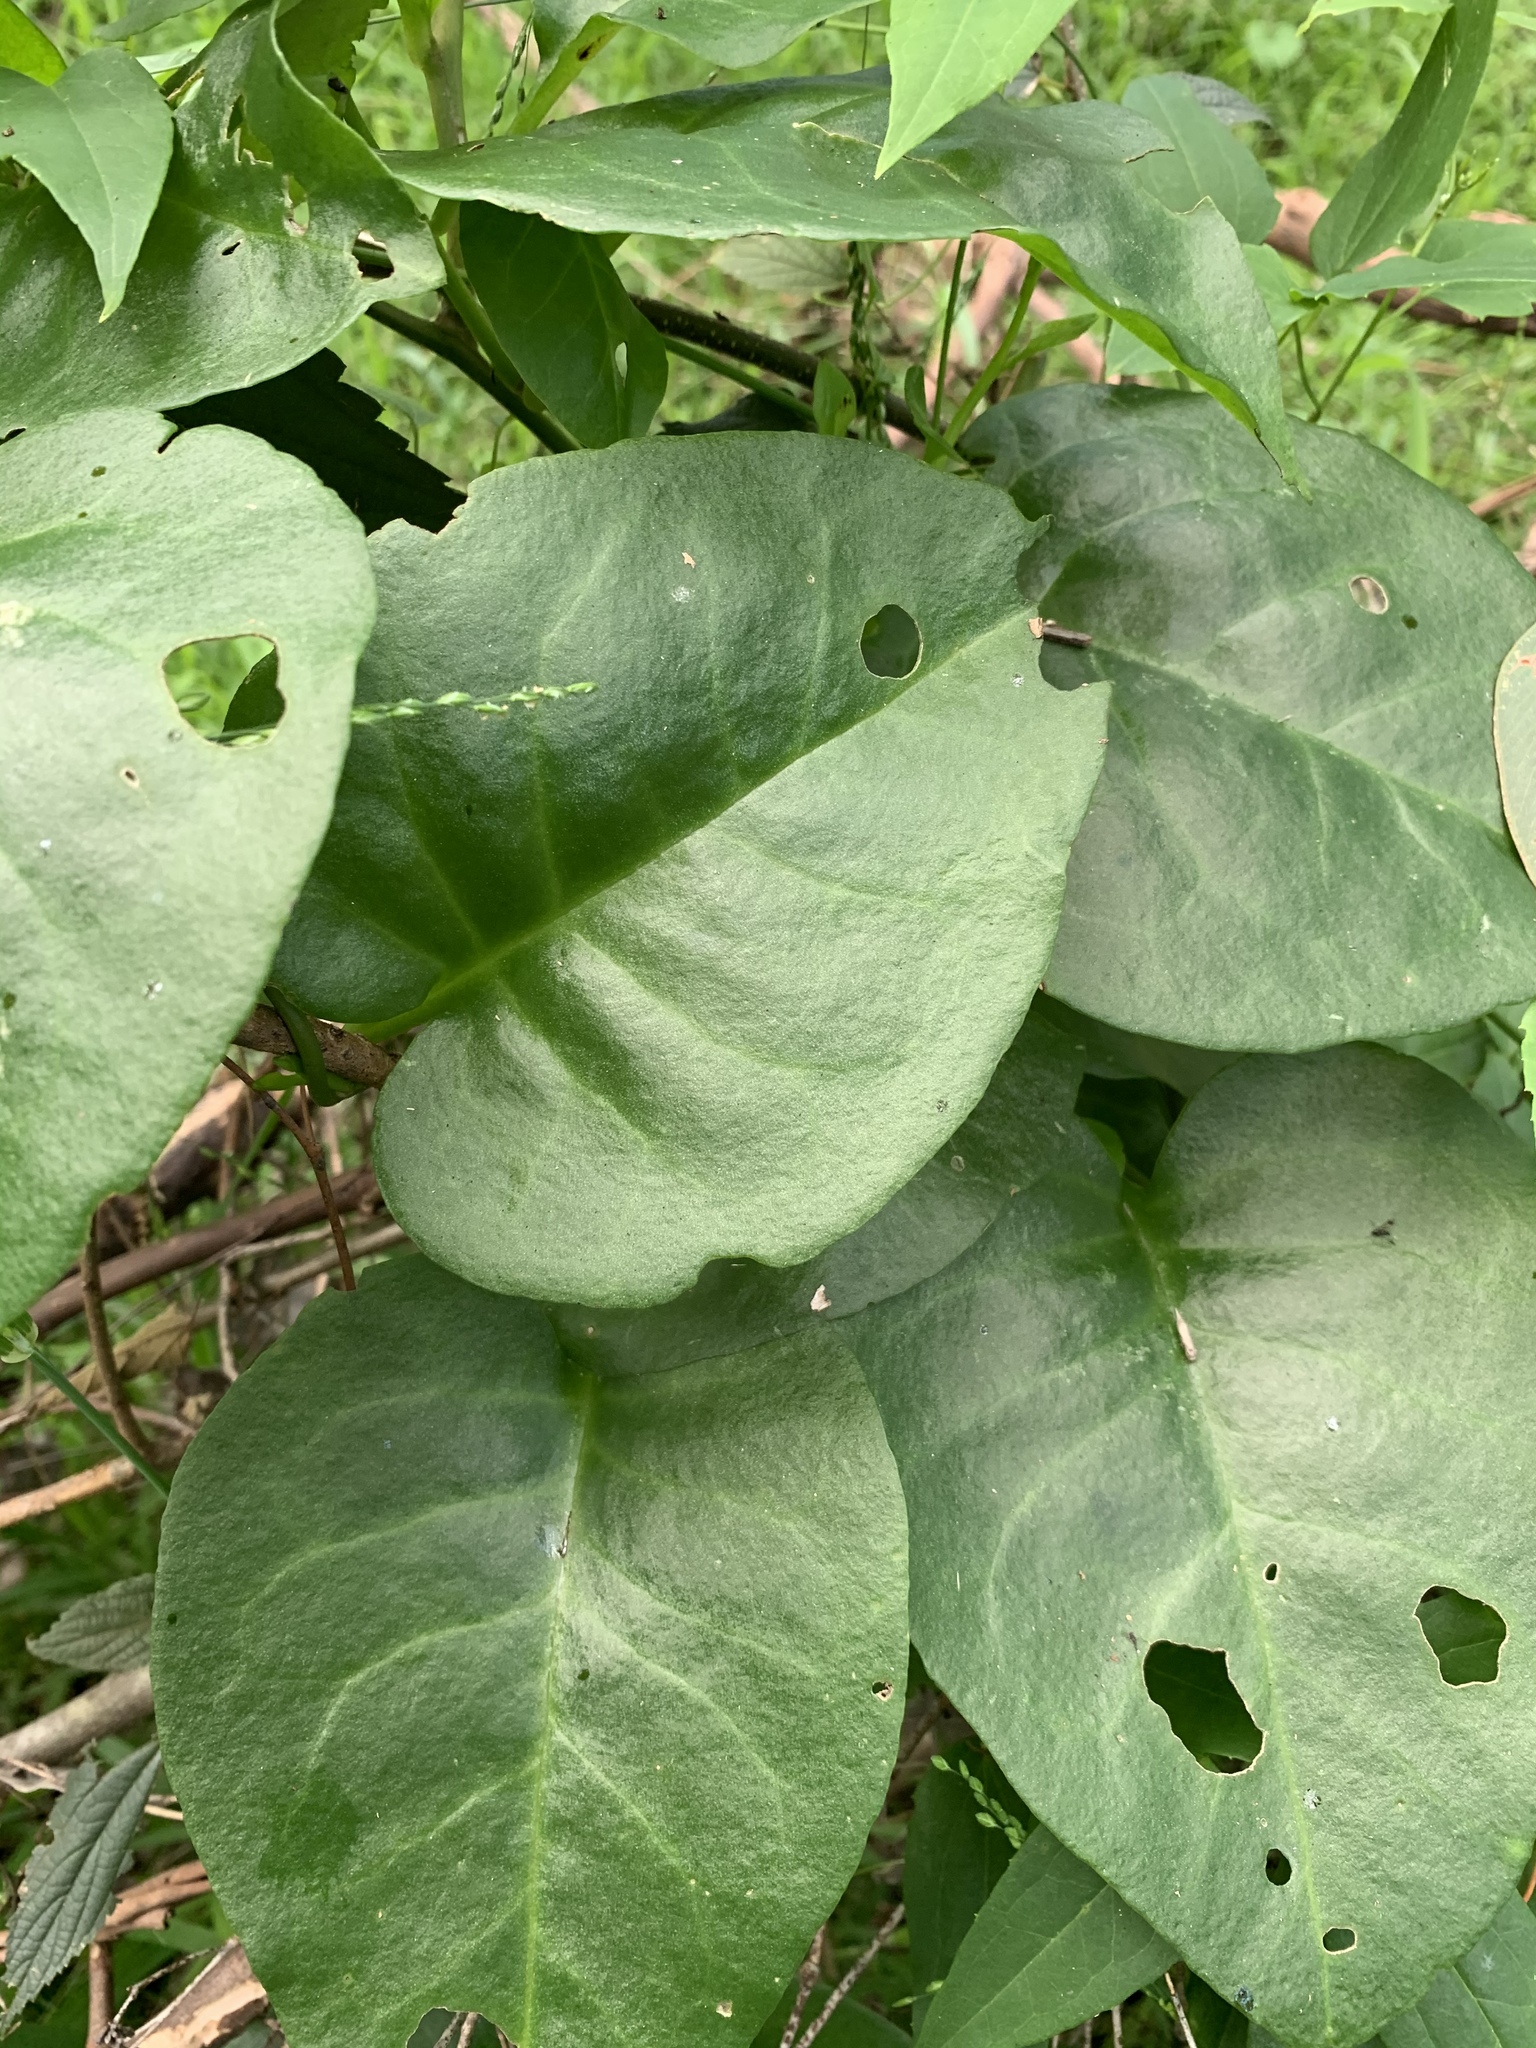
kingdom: Plantae
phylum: Tracheophyta
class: Magnoliopsida
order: Caryophyllales
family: Basellaceae
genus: Anredera
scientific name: Anredera cordifolia
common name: Heartleaf madeiravine
